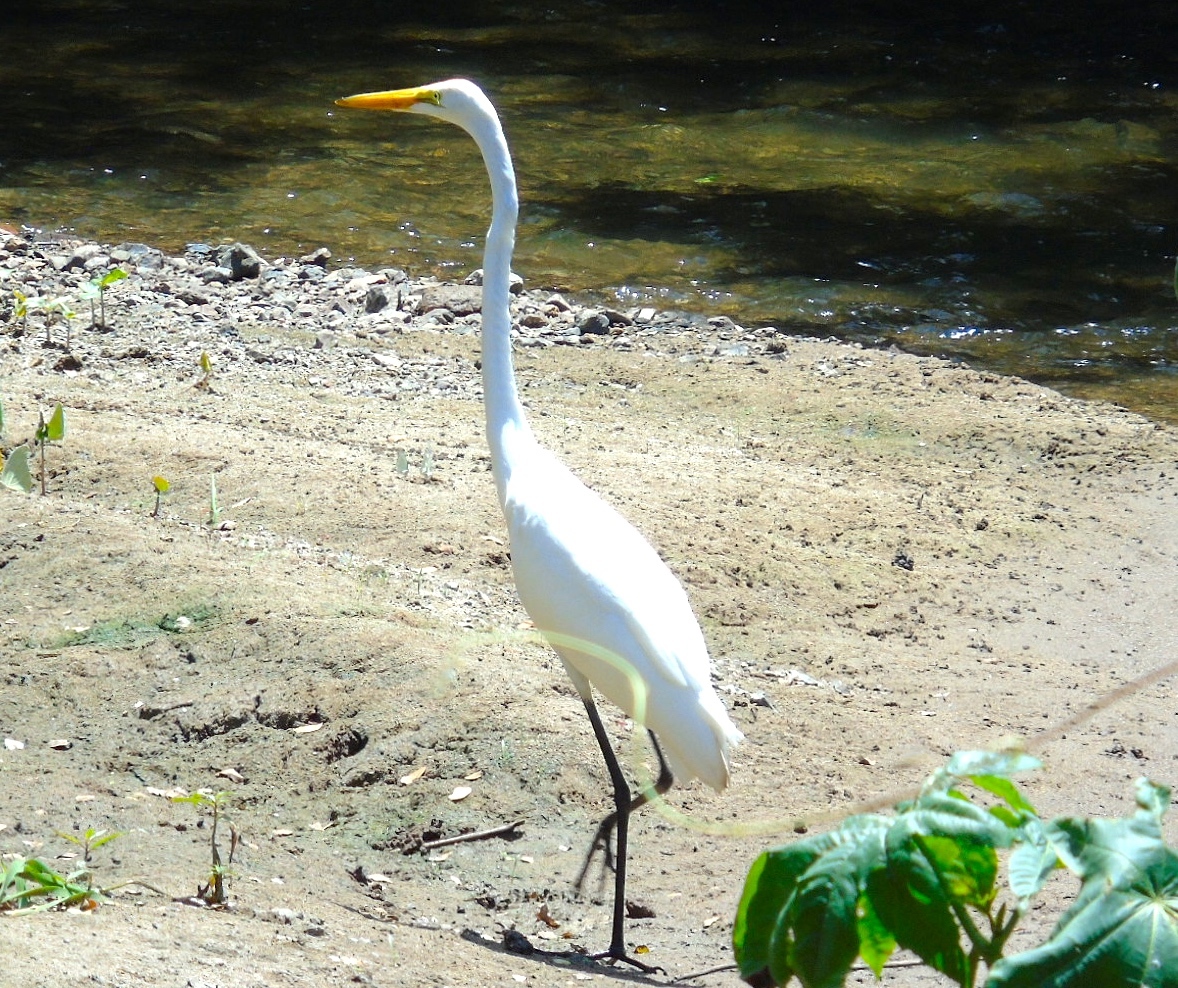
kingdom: Animalia
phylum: Chordata
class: Aves
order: Pelecaniformes
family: Ardeidae
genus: Ardea
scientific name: Ardea alba
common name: Great egret
